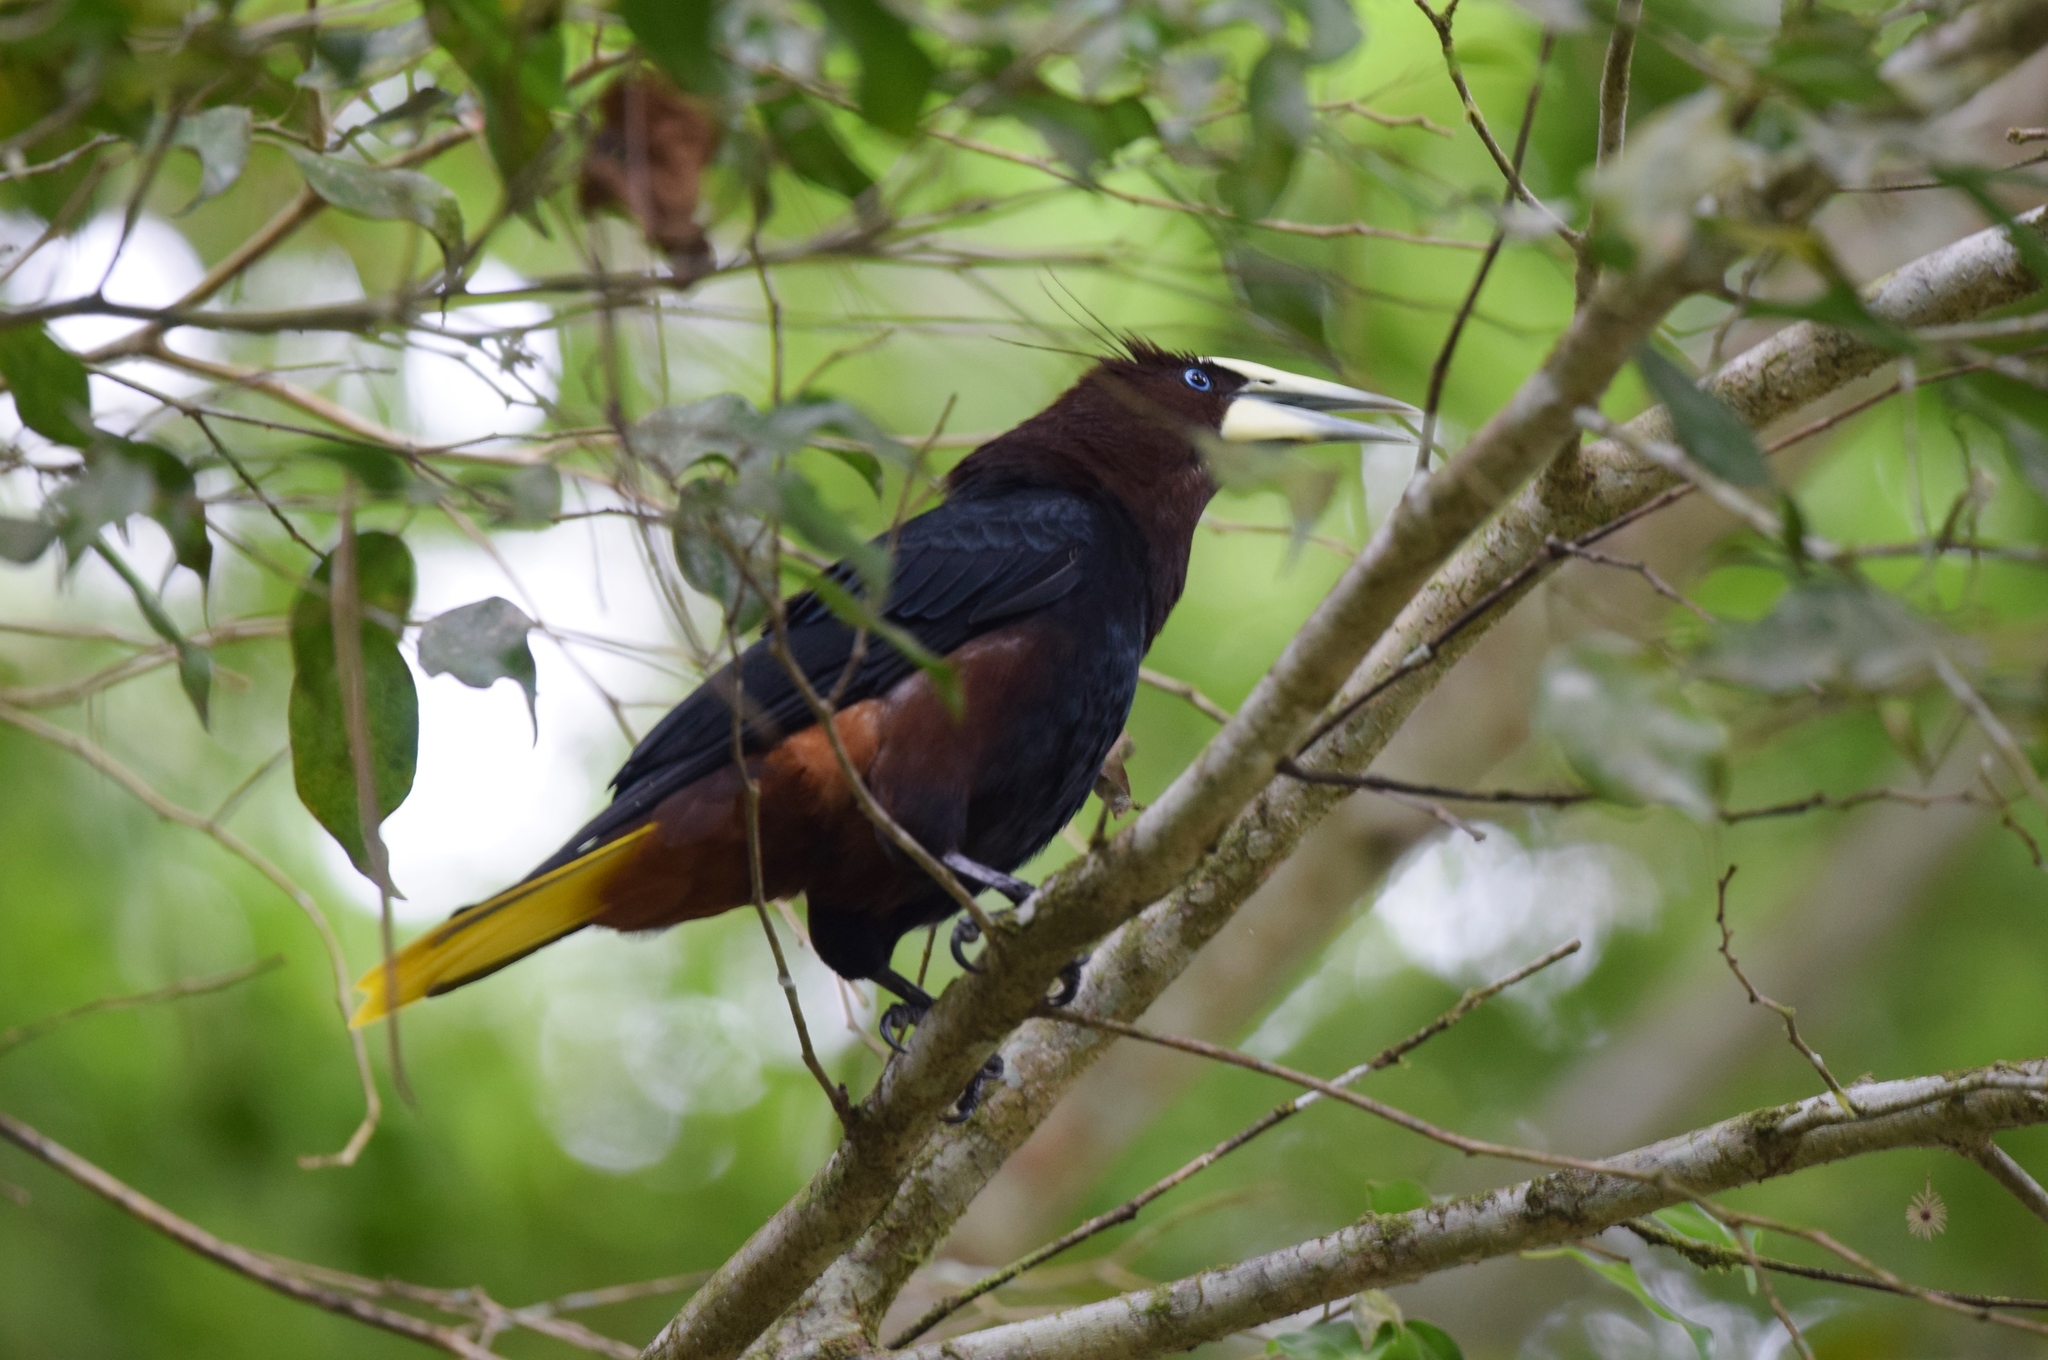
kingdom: Animalia
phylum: Chordata
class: Aves
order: Passeriformes
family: Icteridae
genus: Psarocolius
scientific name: Psarocolius wagleri
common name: Chestnut-headed oropendola
